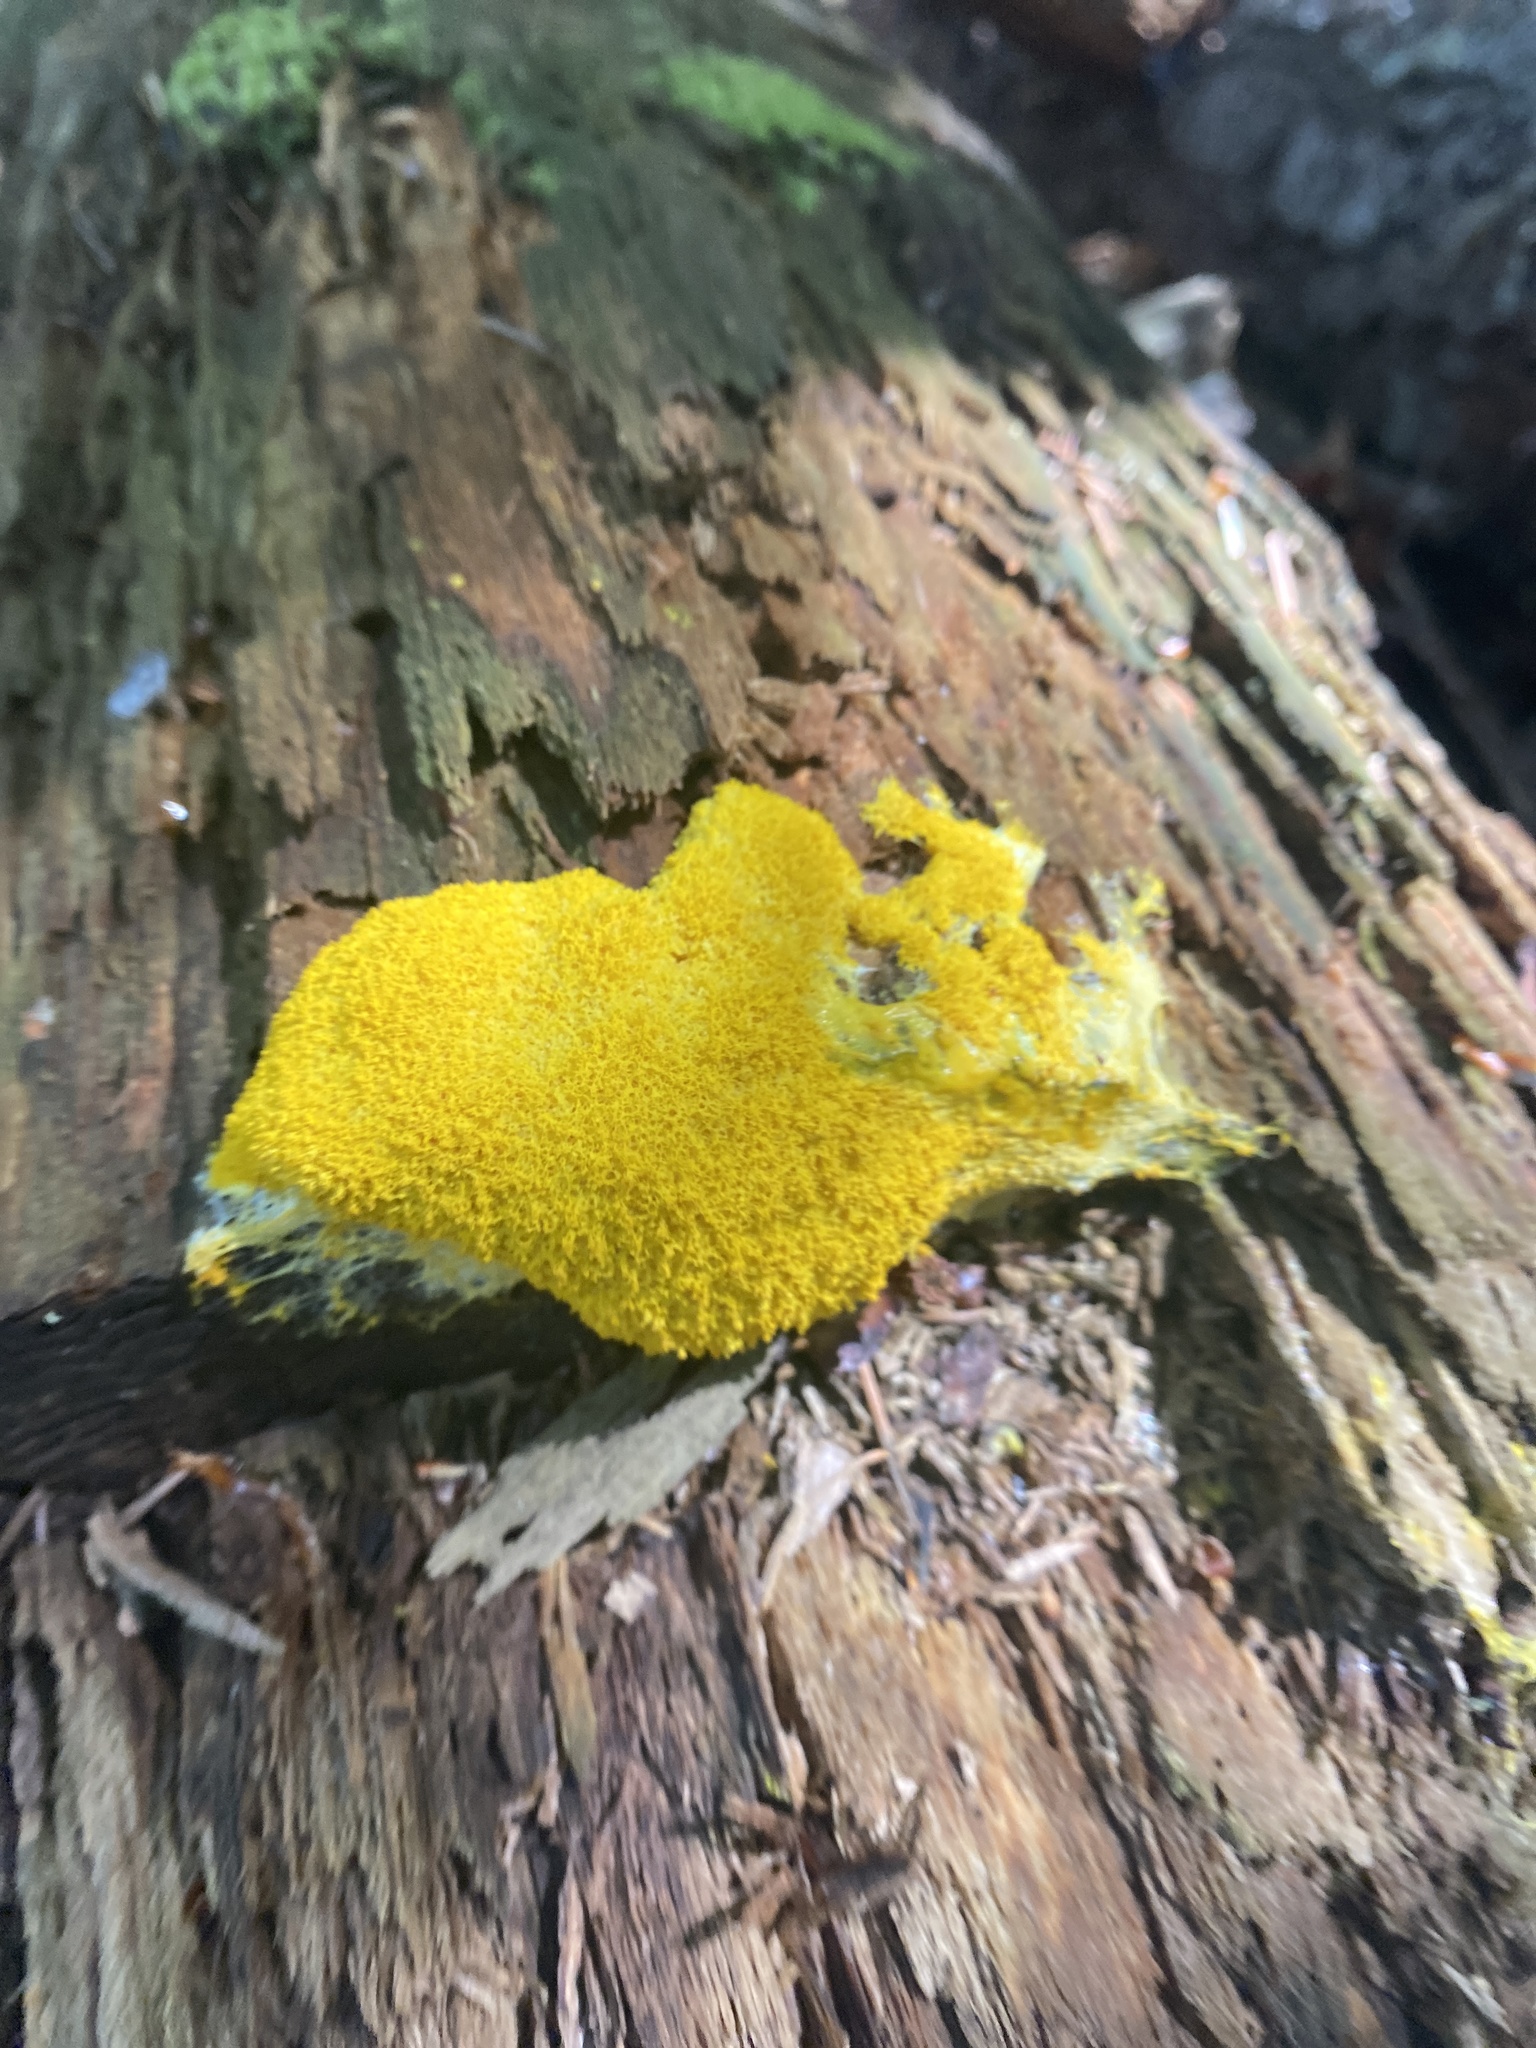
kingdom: Protozoa
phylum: Mycetozoa
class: Myxomycetes
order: Physarales
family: Physaraceae
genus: Fuligo
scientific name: Fuligo septica
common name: Dog vomit slime mold
